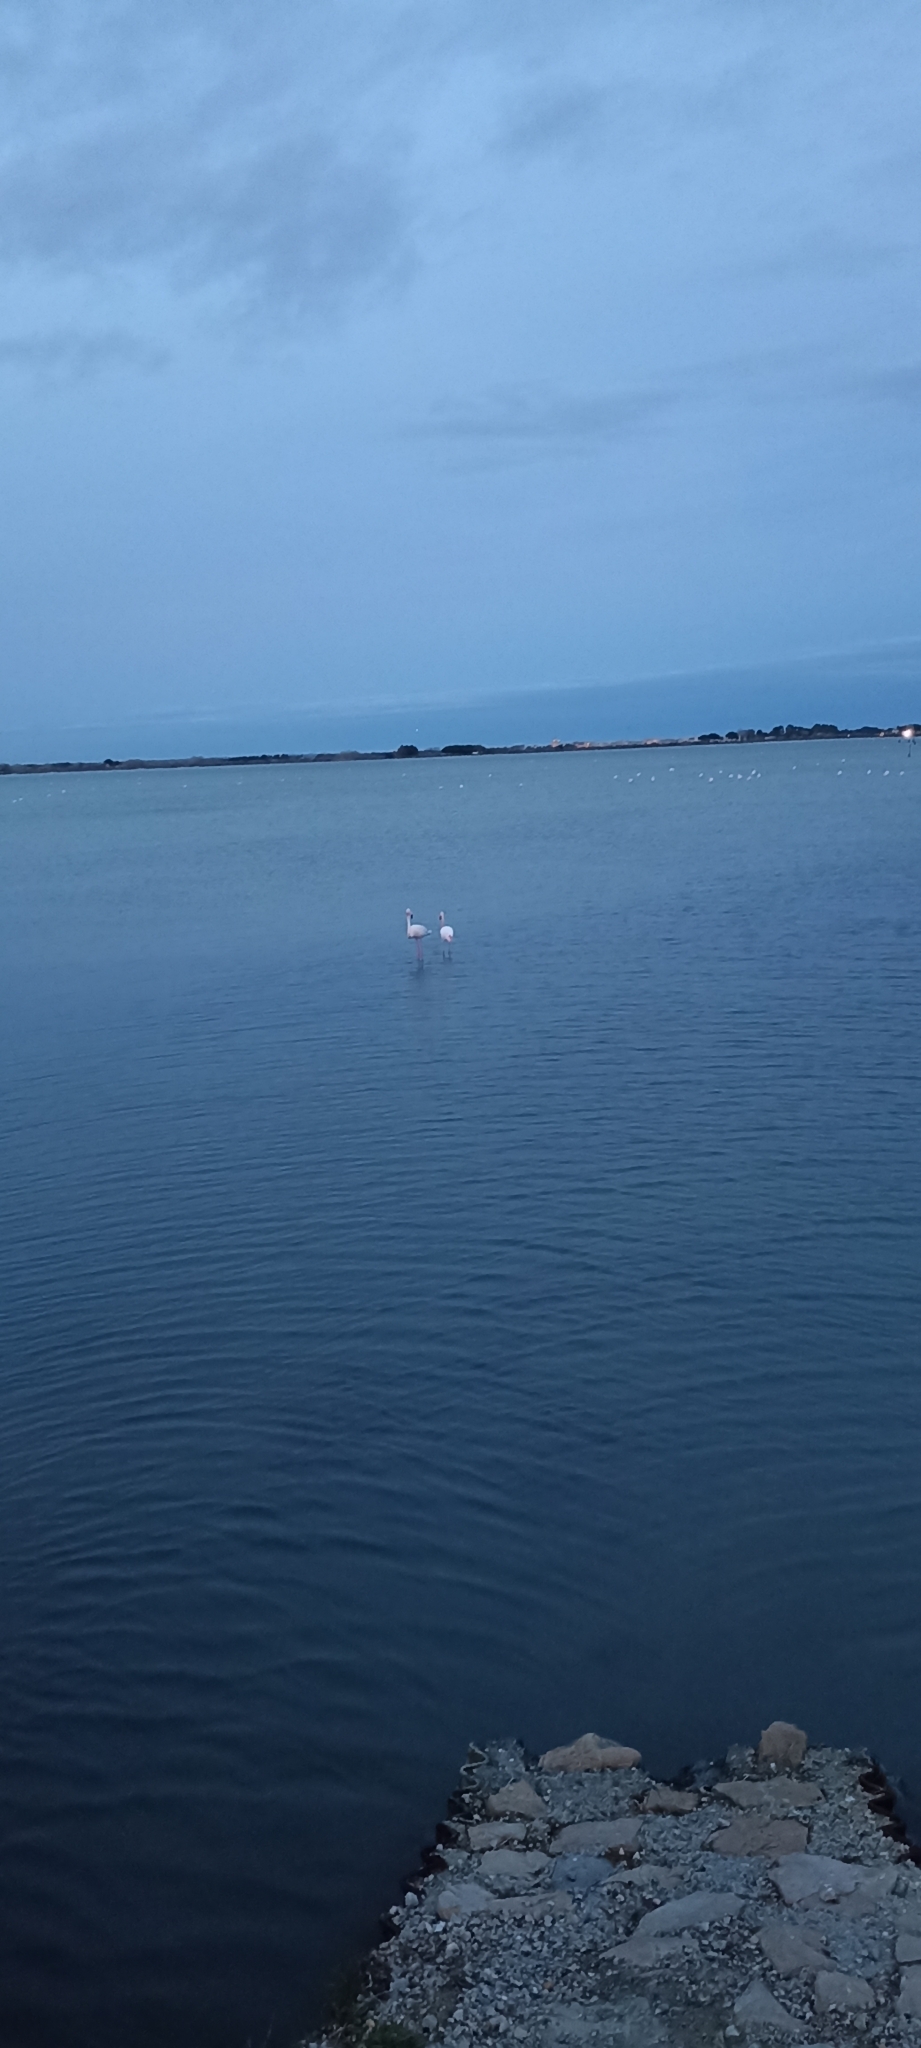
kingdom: Animalia
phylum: Chordata
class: Aves
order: Phoenicopteriformes
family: Phoenicopteridae
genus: Phoenicopterus
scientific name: Phoenicopterus roseus
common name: Greater flamingo
